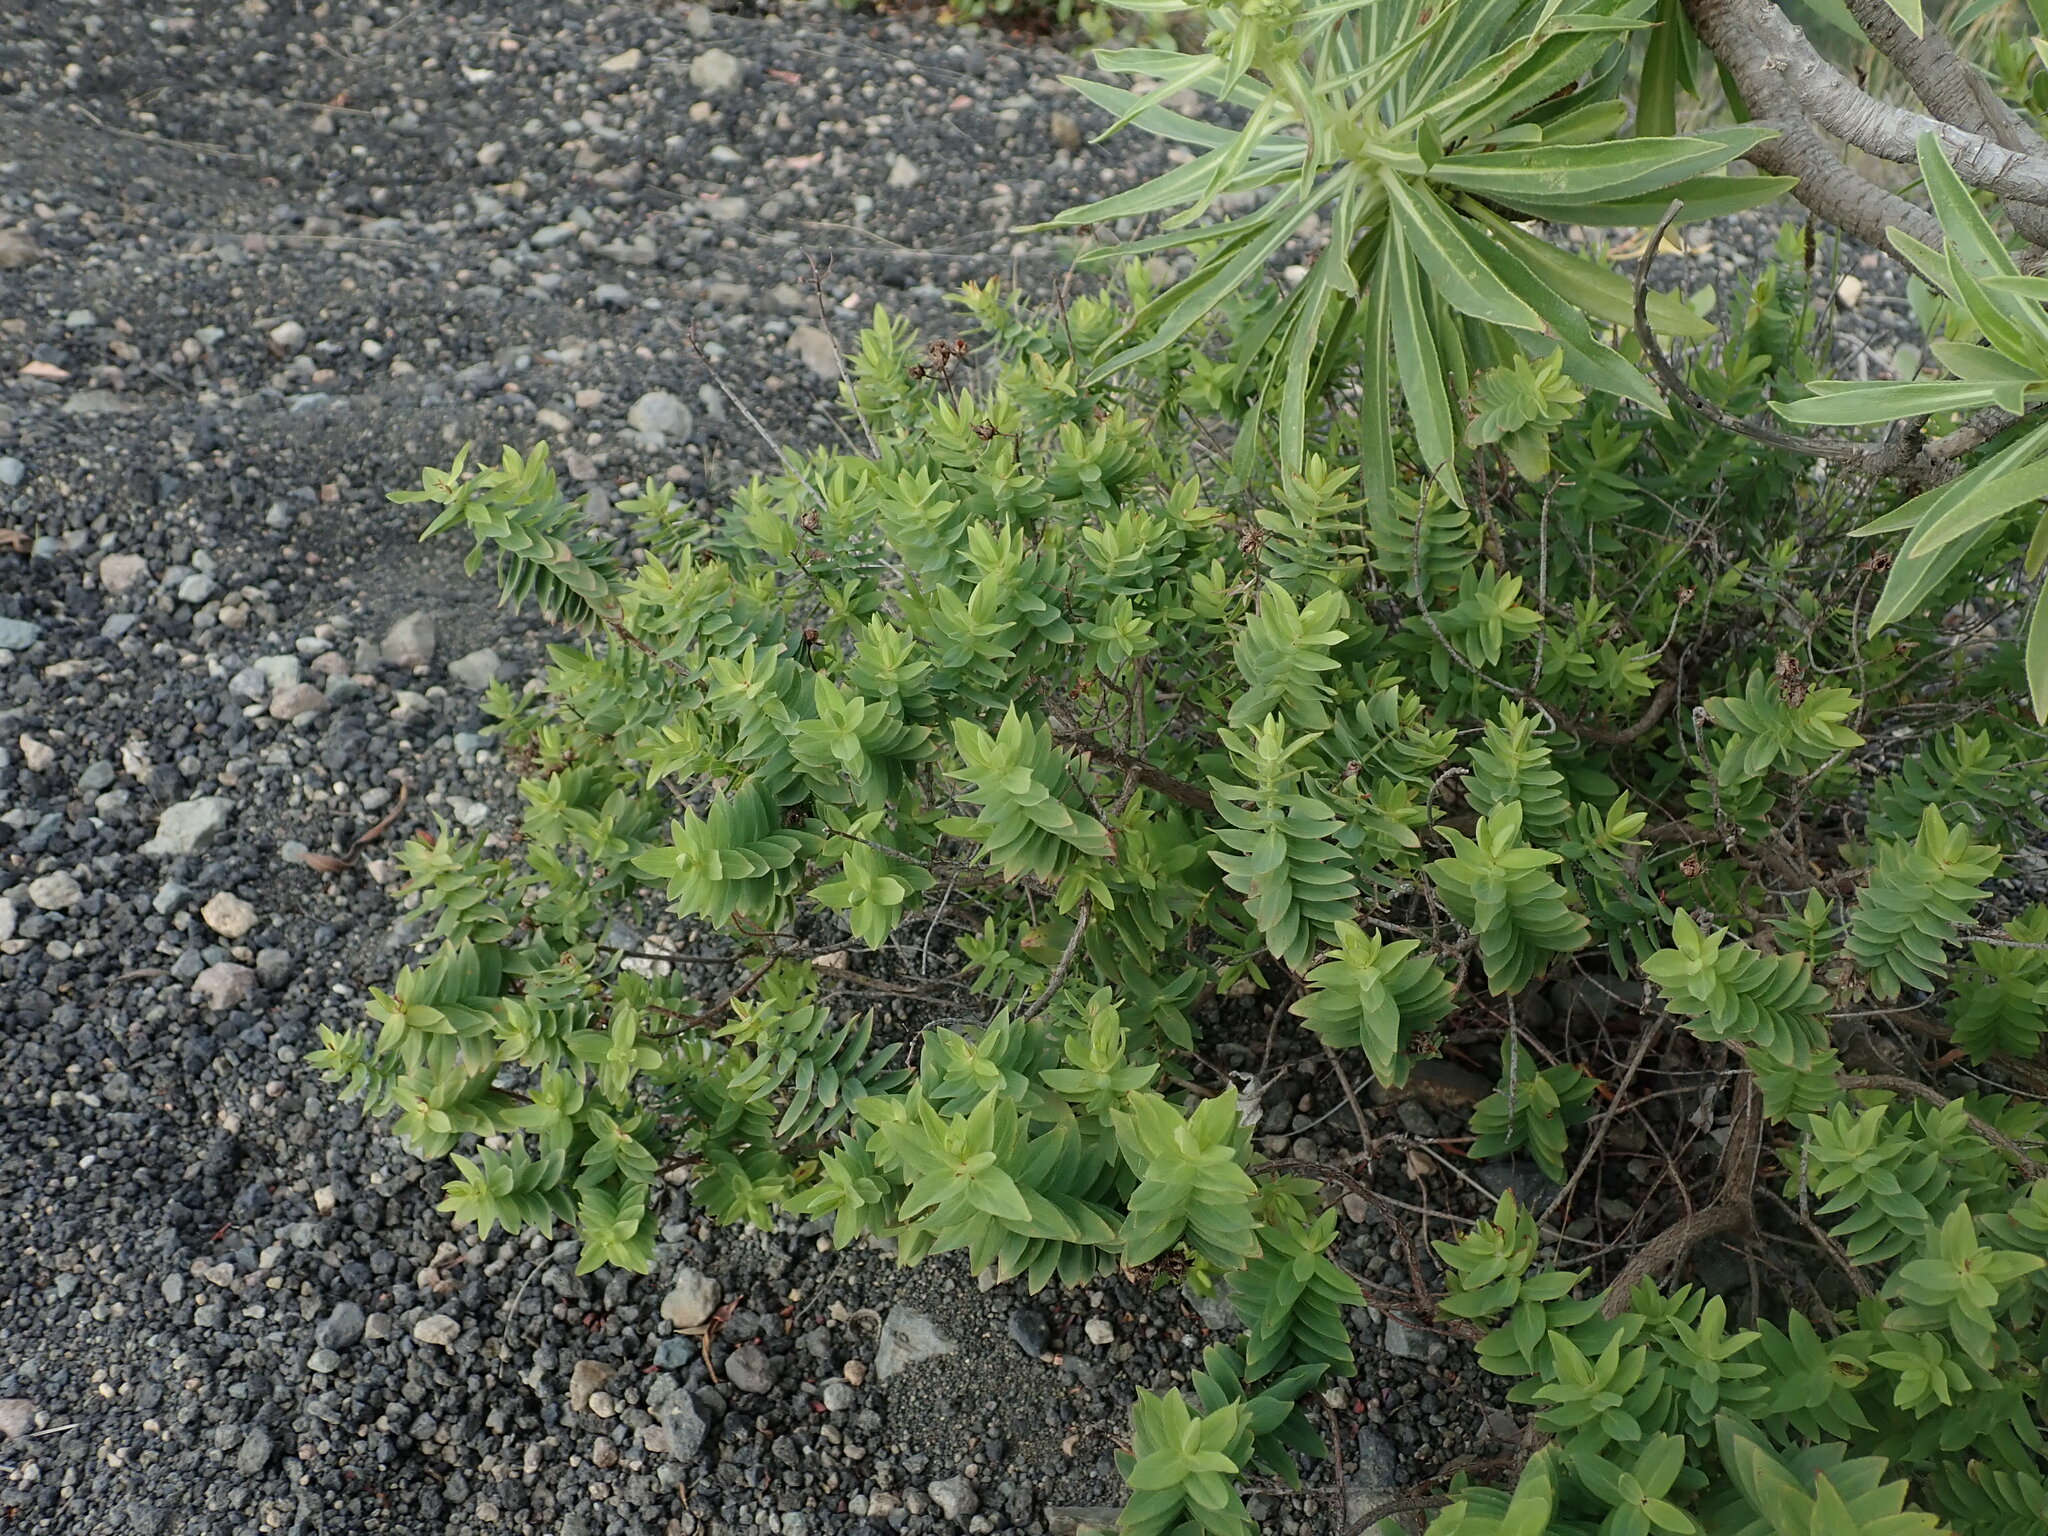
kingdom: Plantae
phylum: Tracheophyta
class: Magnoliopsida
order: Malpighiales
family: Hypericaceae
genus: Hypericum
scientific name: Hypericum reflexum
